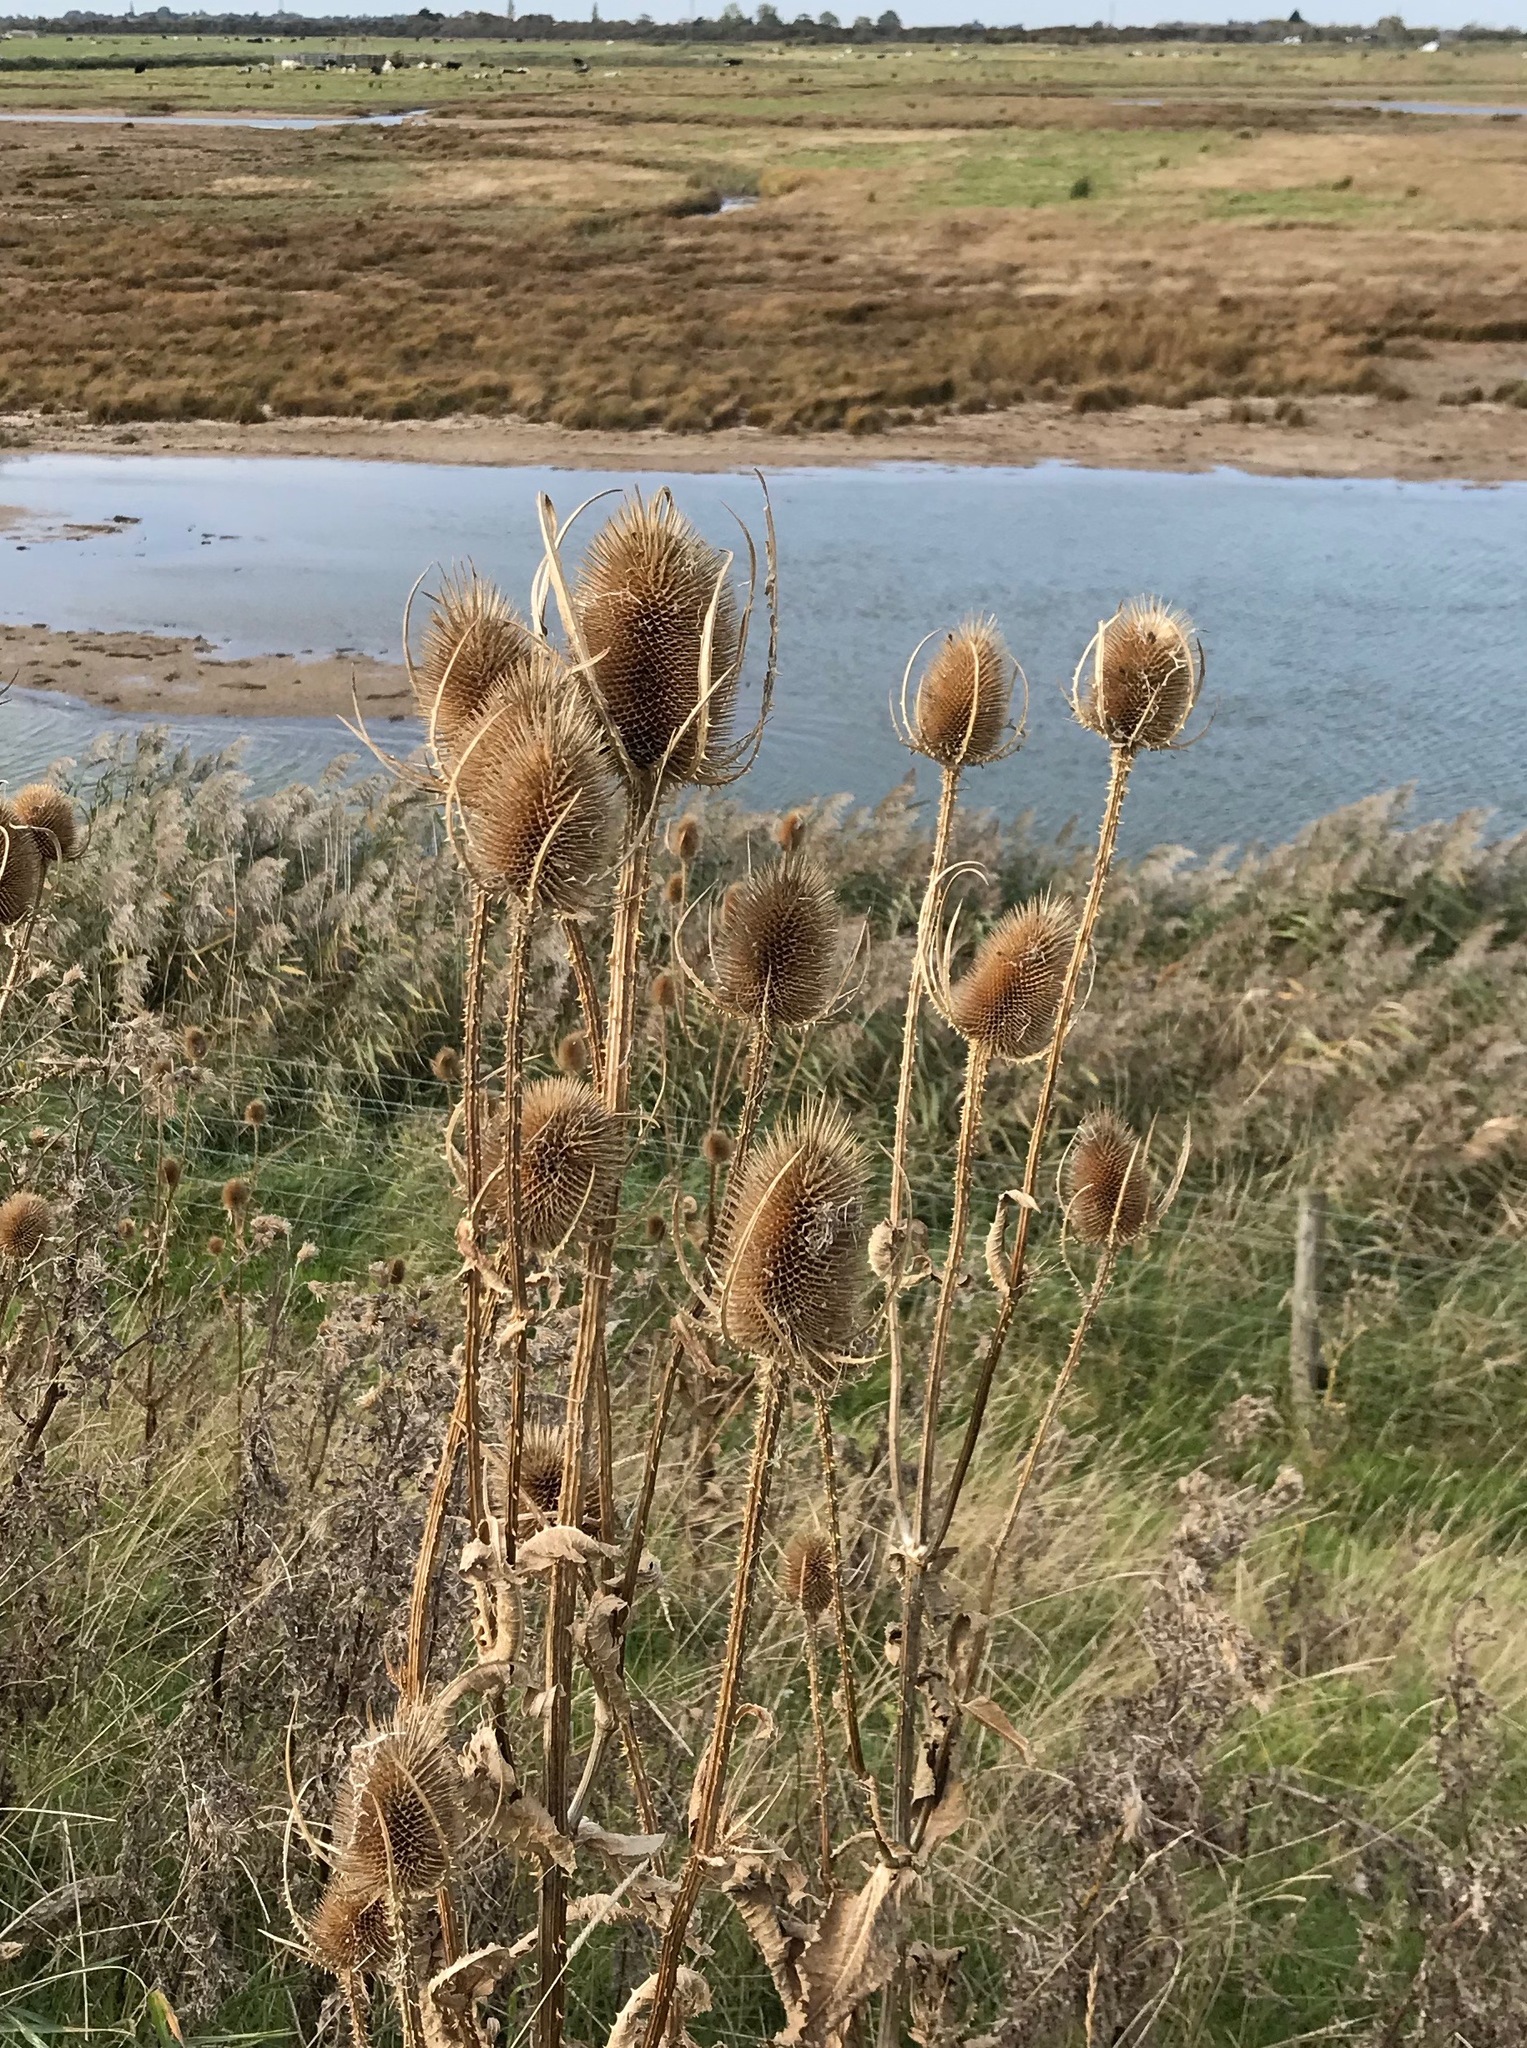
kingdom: Plantae
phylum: Tracheophyta
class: Magnoliopsida
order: Dipsacales
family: Caprifoliaceae
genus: Dipsacus
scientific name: Dipsacus fullonum
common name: Teasel
